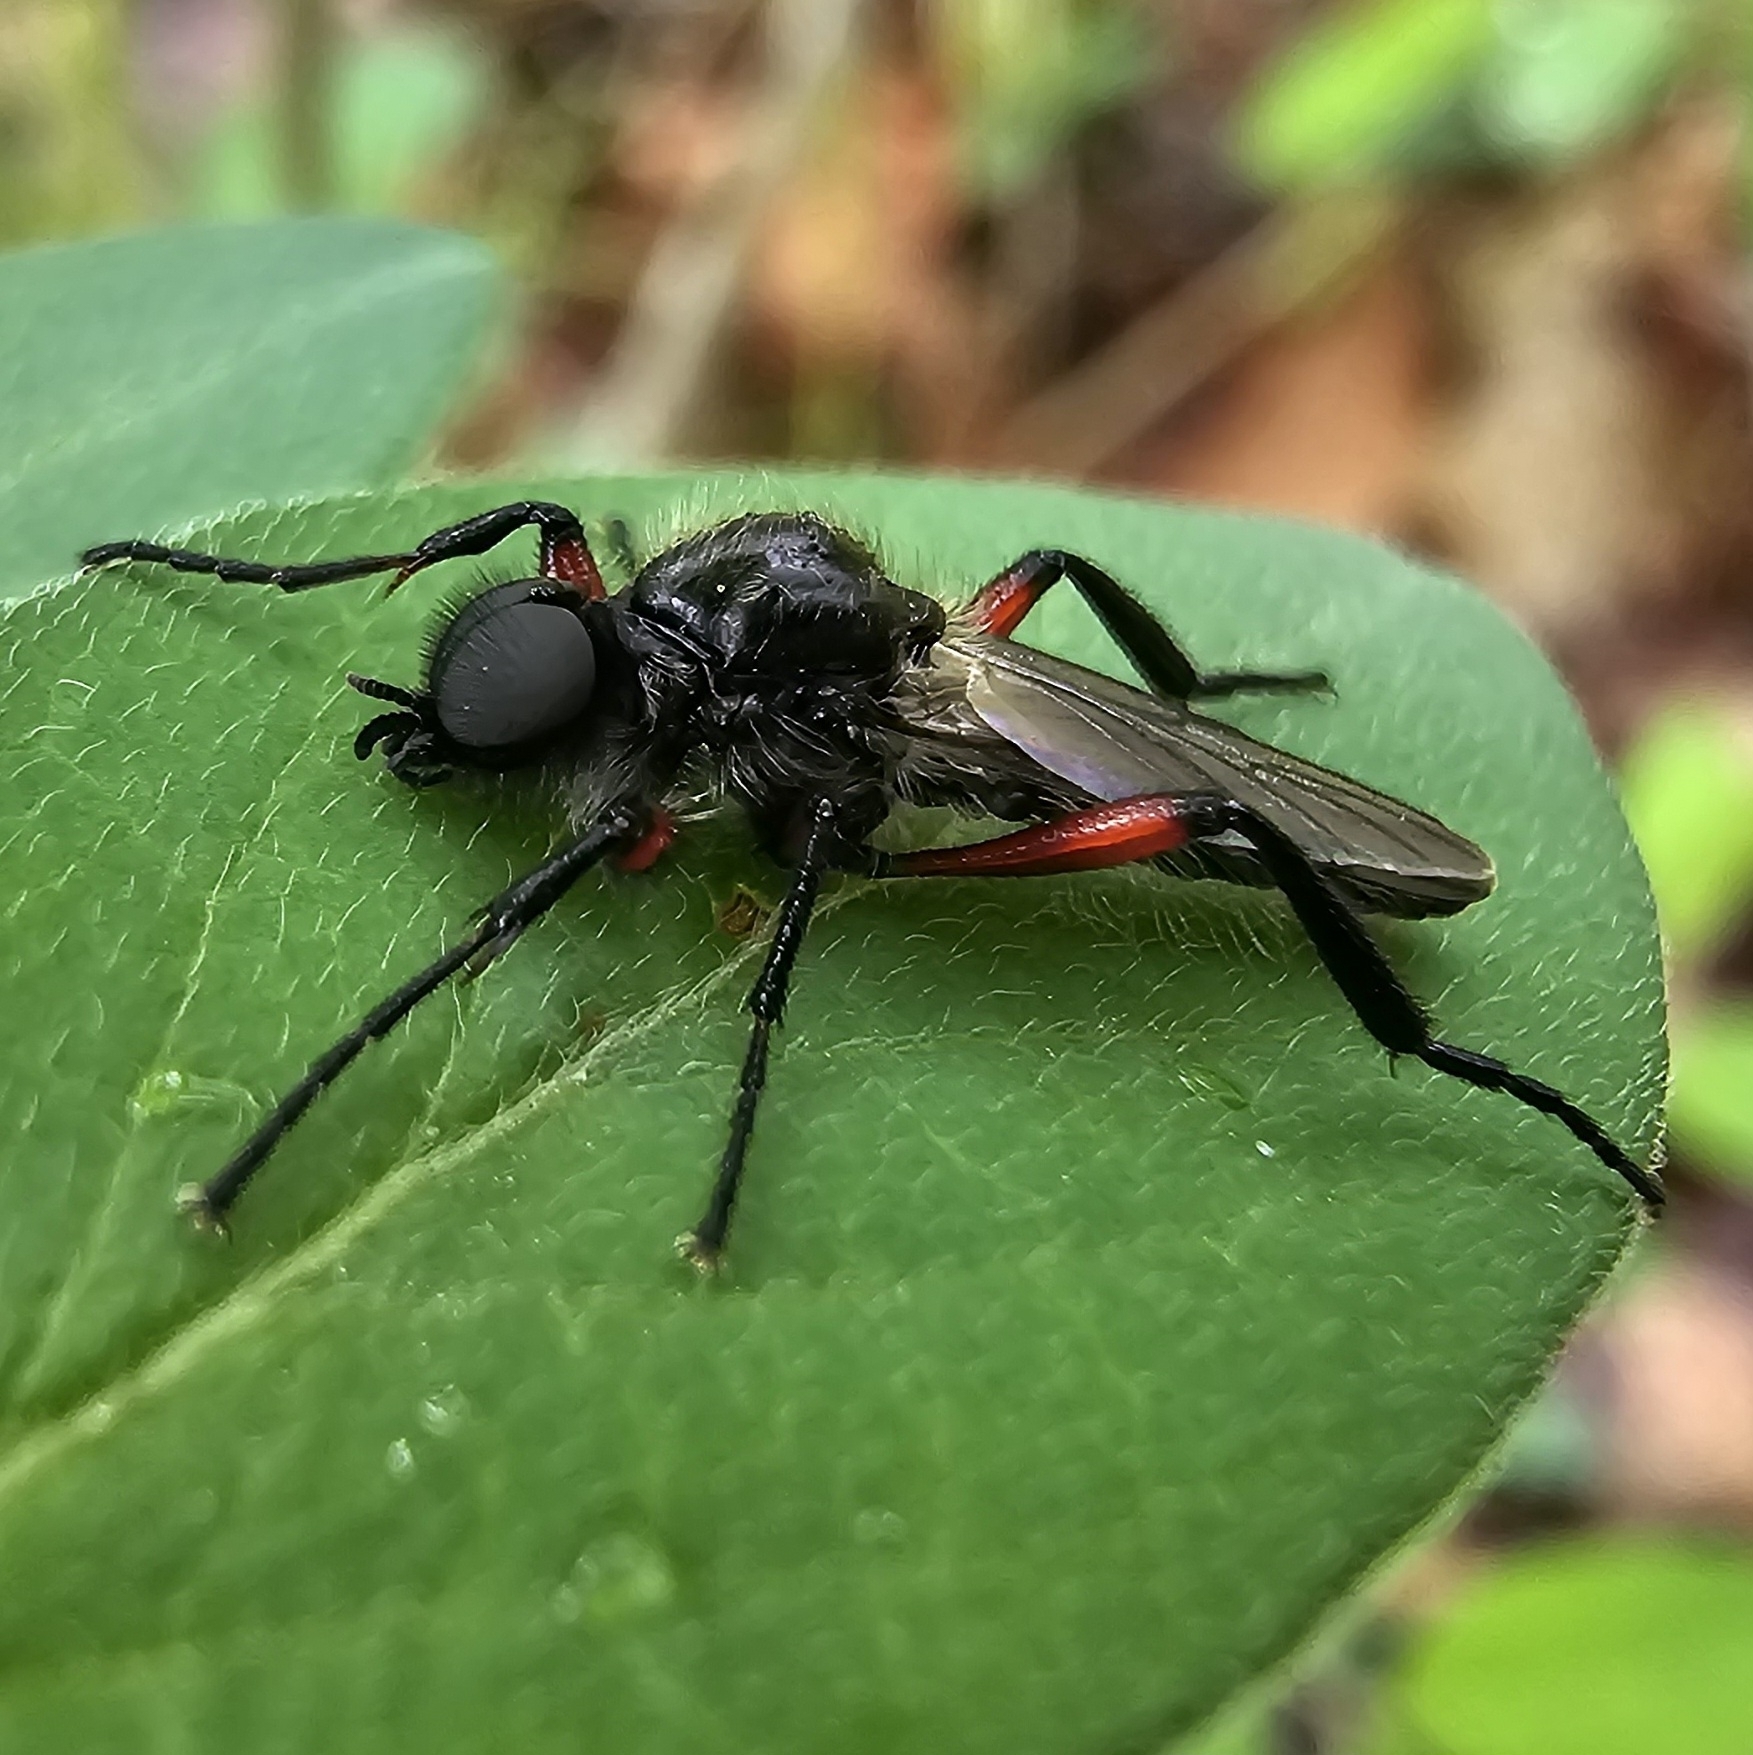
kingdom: Animalia
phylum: Arthropoda
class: Insecta
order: Diptera
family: Bibionidae
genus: Bibio
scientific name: Bibio femoratus
